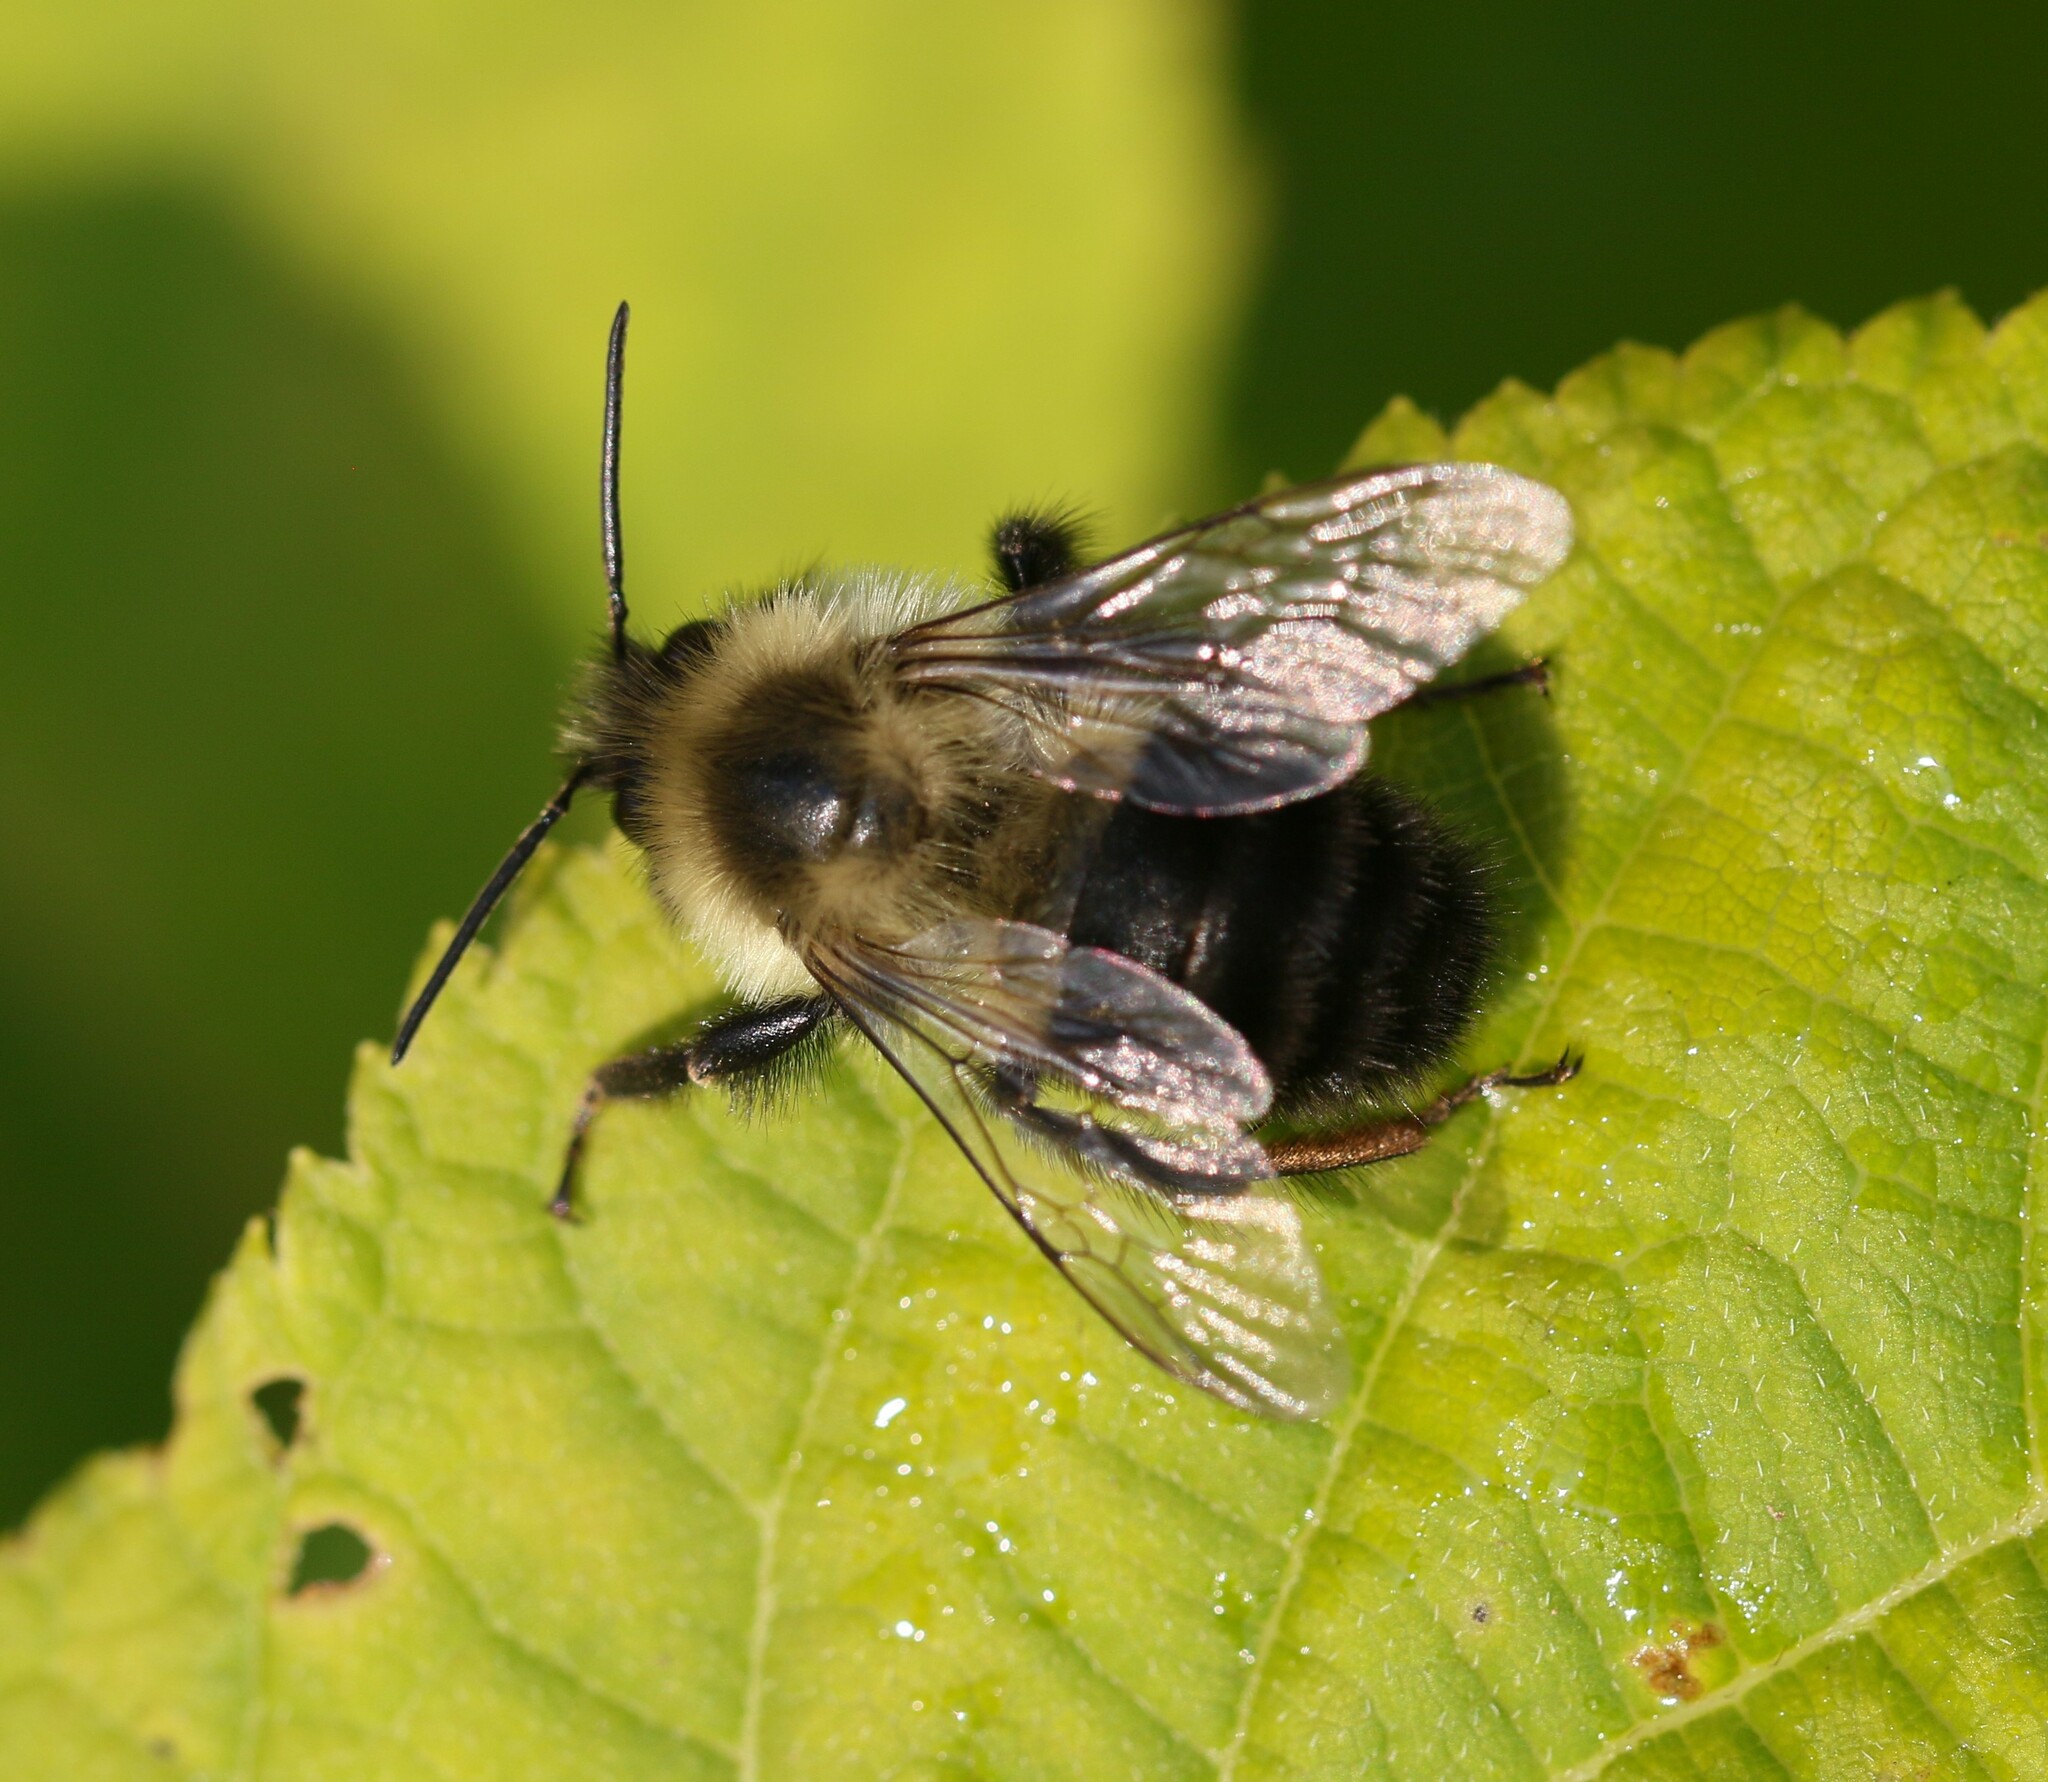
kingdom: Animalia
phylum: Arthropoda
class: Insecta
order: Hymenoptera
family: Apidae
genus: Bombus
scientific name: Bombus impatiens
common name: Common eastern bumble bee
